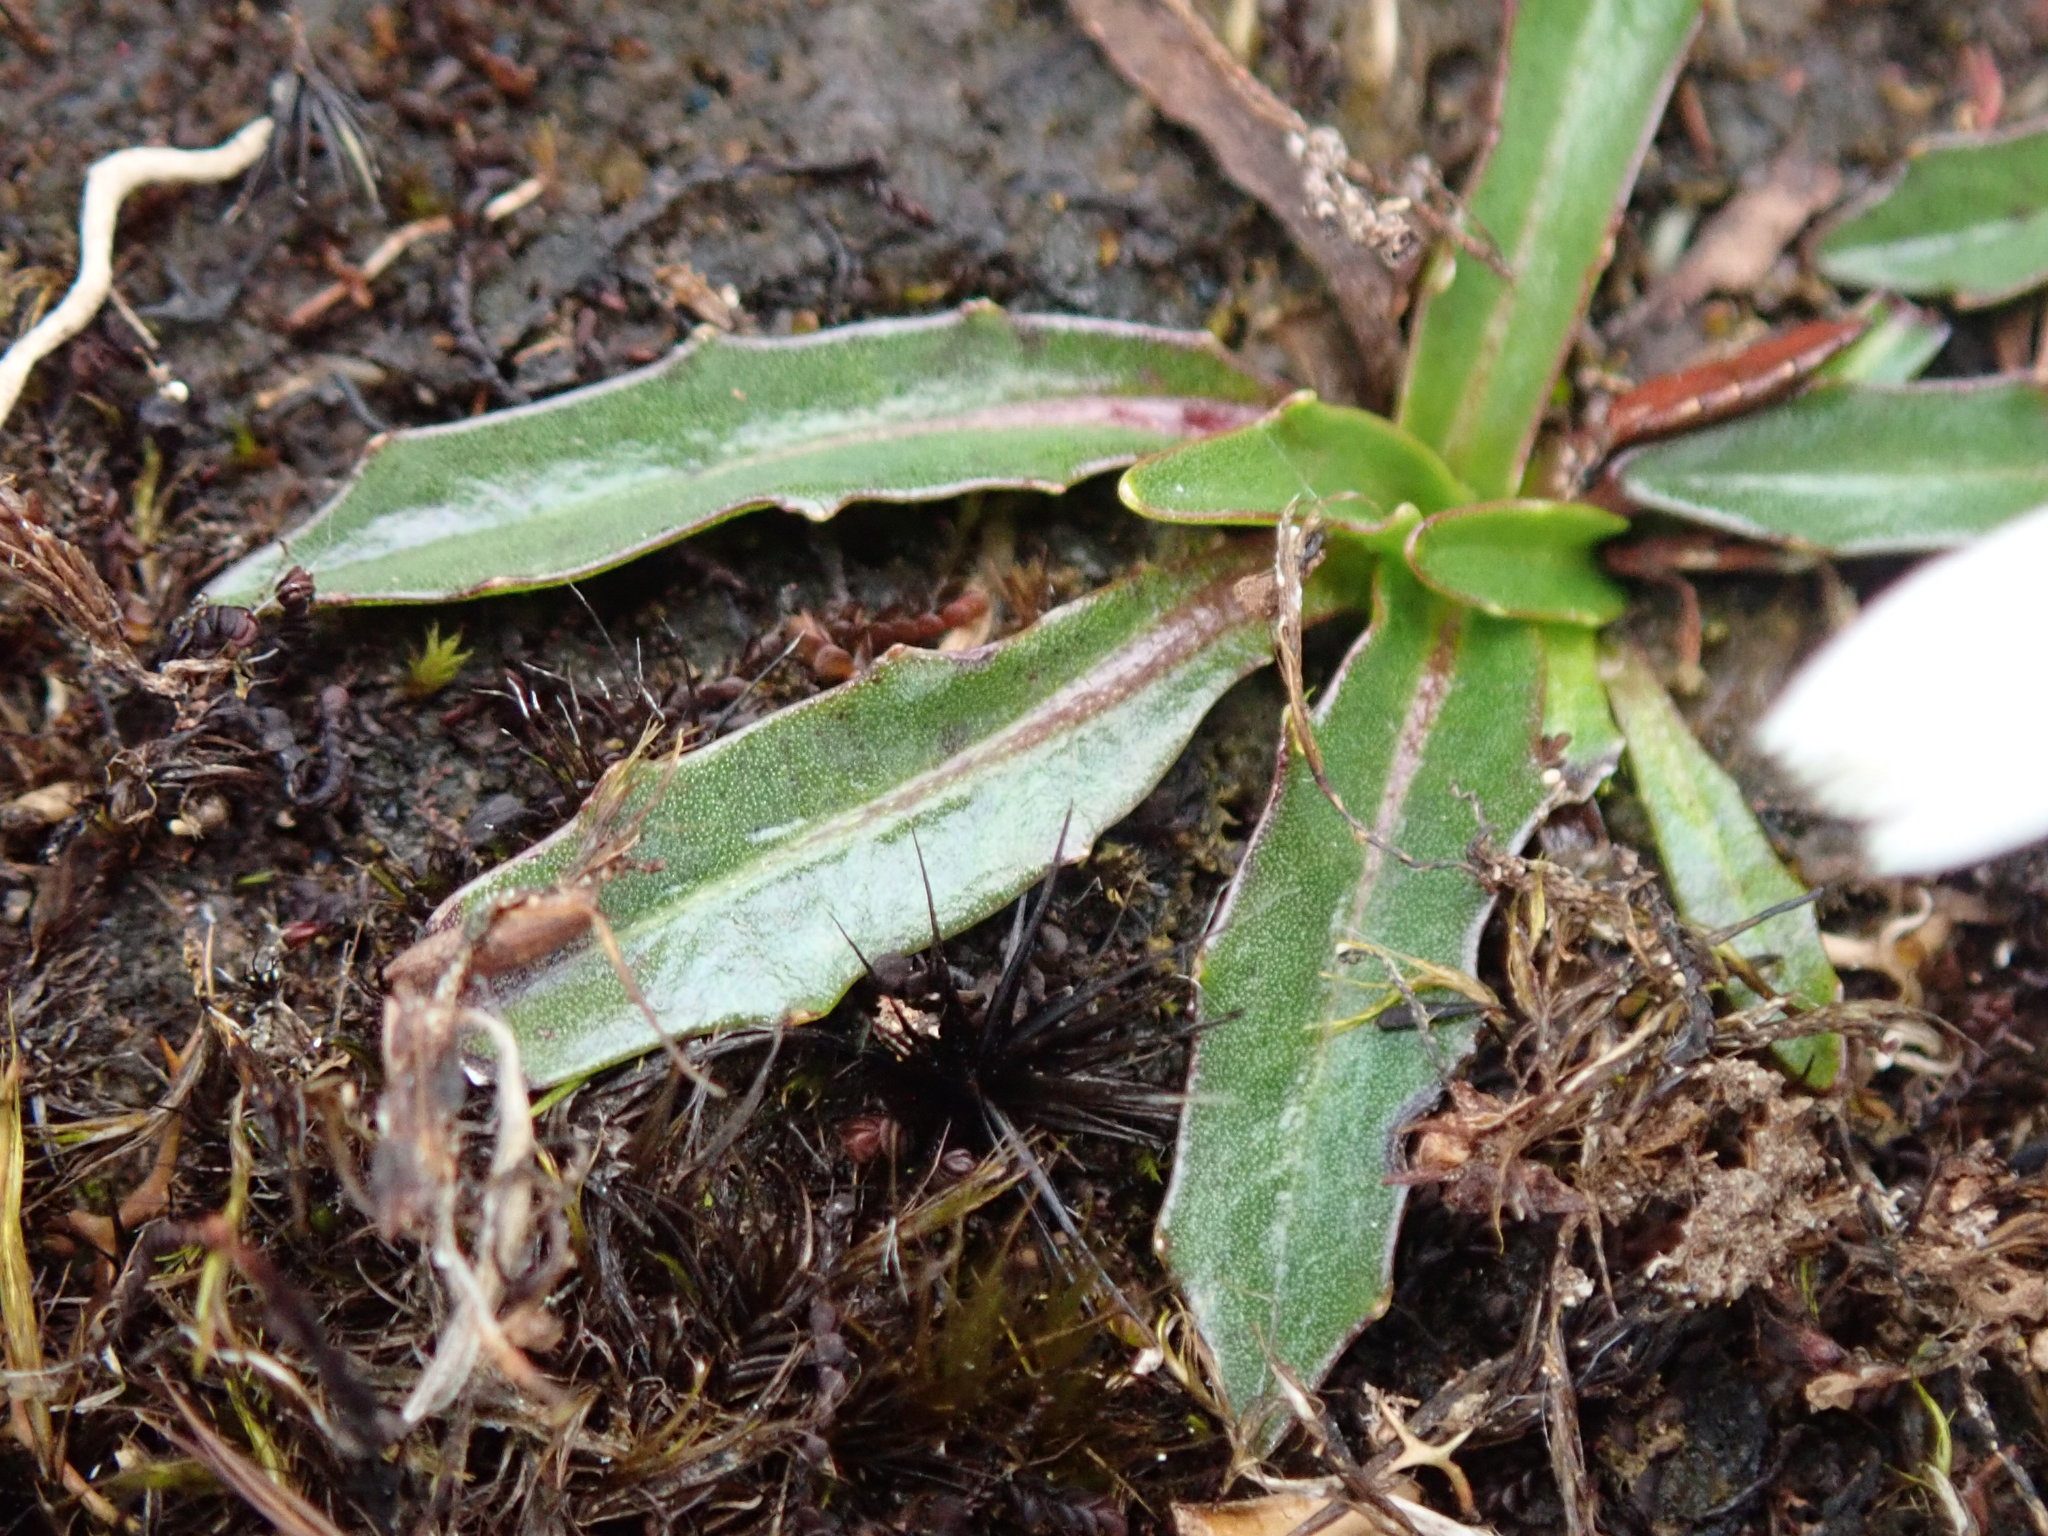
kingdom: Plantae
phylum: Tracheophyta
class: Magnoliopsida
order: Asterales
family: Asteraceae
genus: Hypochaeris
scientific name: Hypochaeris sessiliflora
